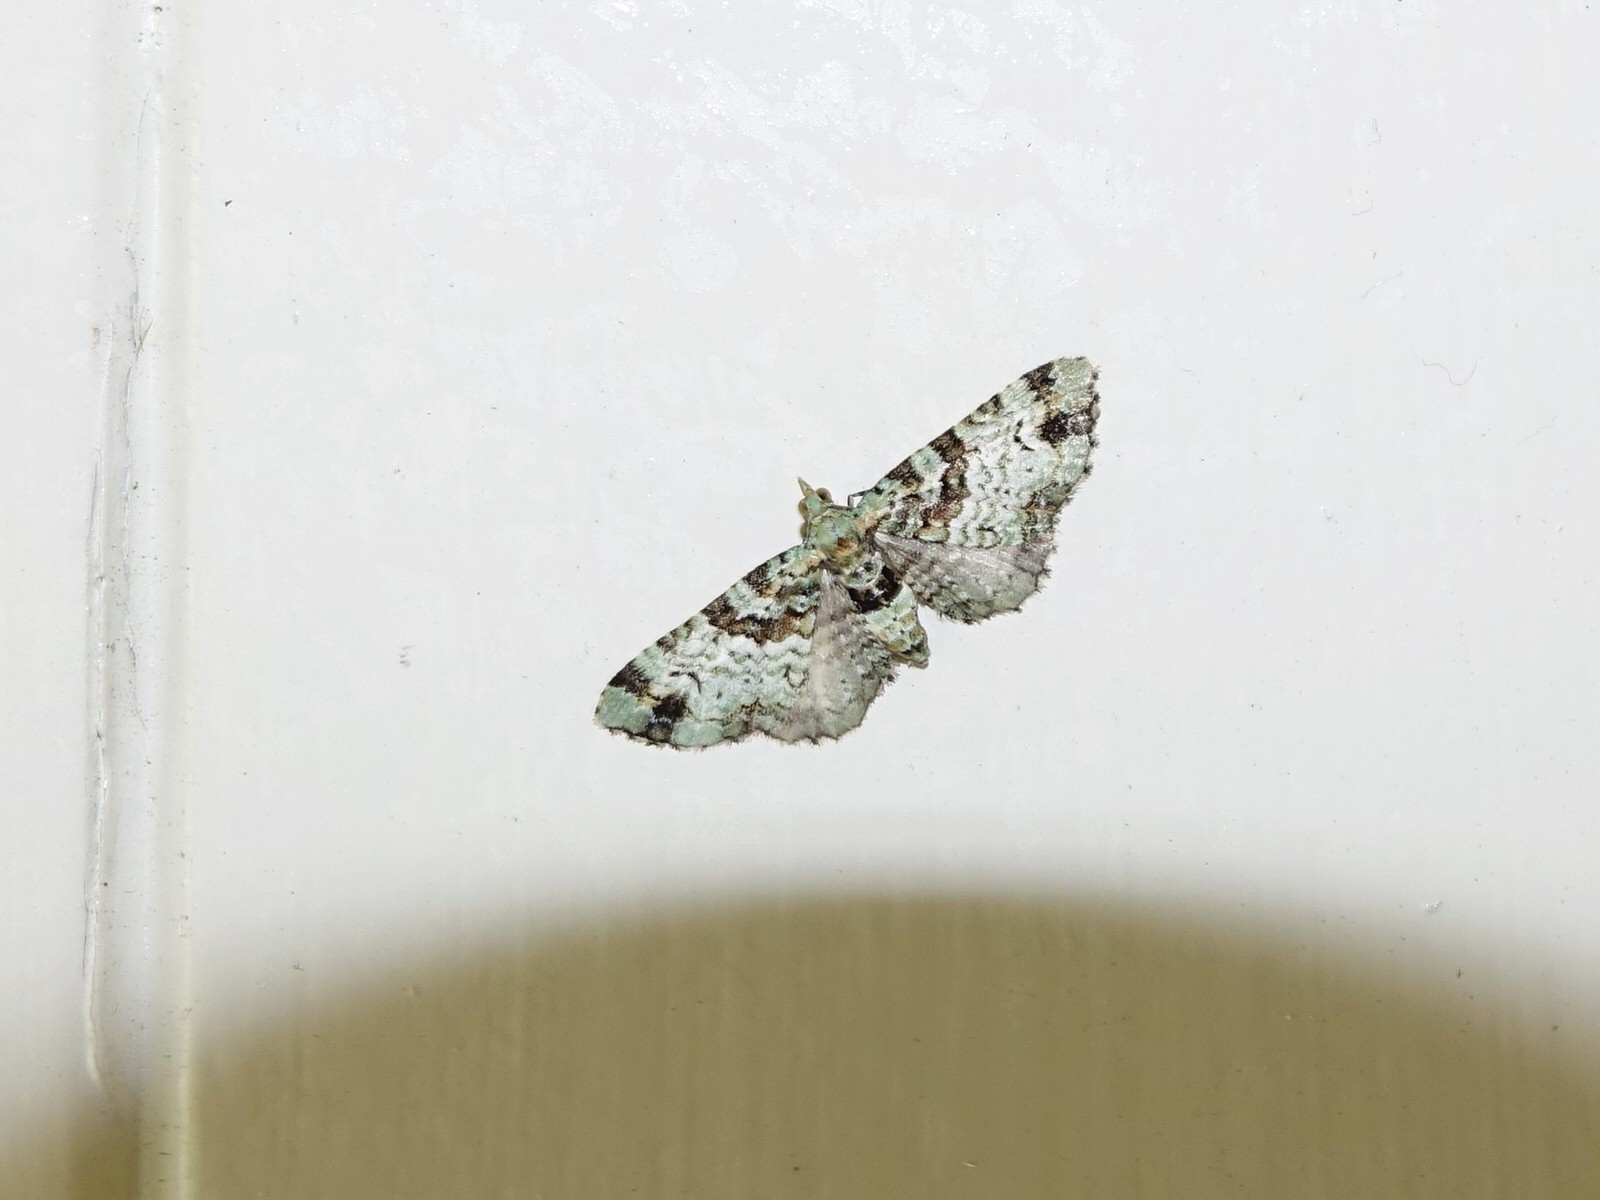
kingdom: Animalia
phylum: Arthropoda
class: Insecta
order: Lepidoptera
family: Geometridae
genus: Pasiphila
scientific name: Pasiphila bilineolata
